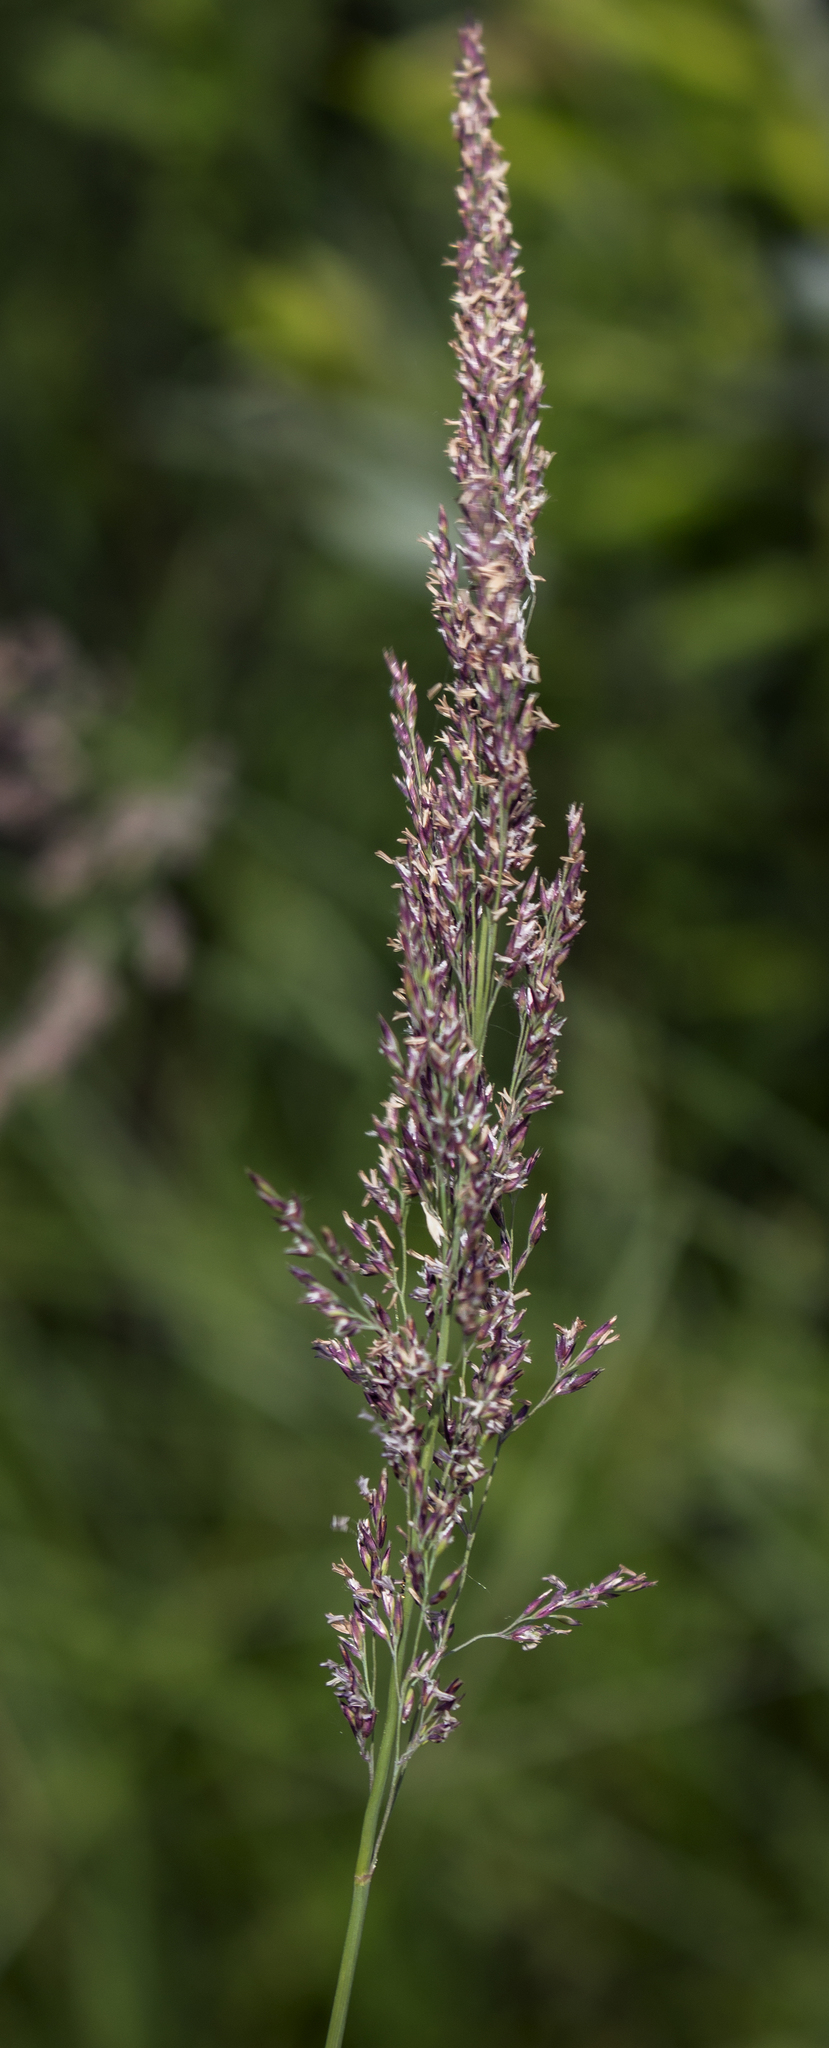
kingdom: Plantae
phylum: Tracheophyta
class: Liliopsida
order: Poales
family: Poaceae
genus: Calamagrostis
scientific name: Calamagrostis canadensis
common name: Canada bluejoint
